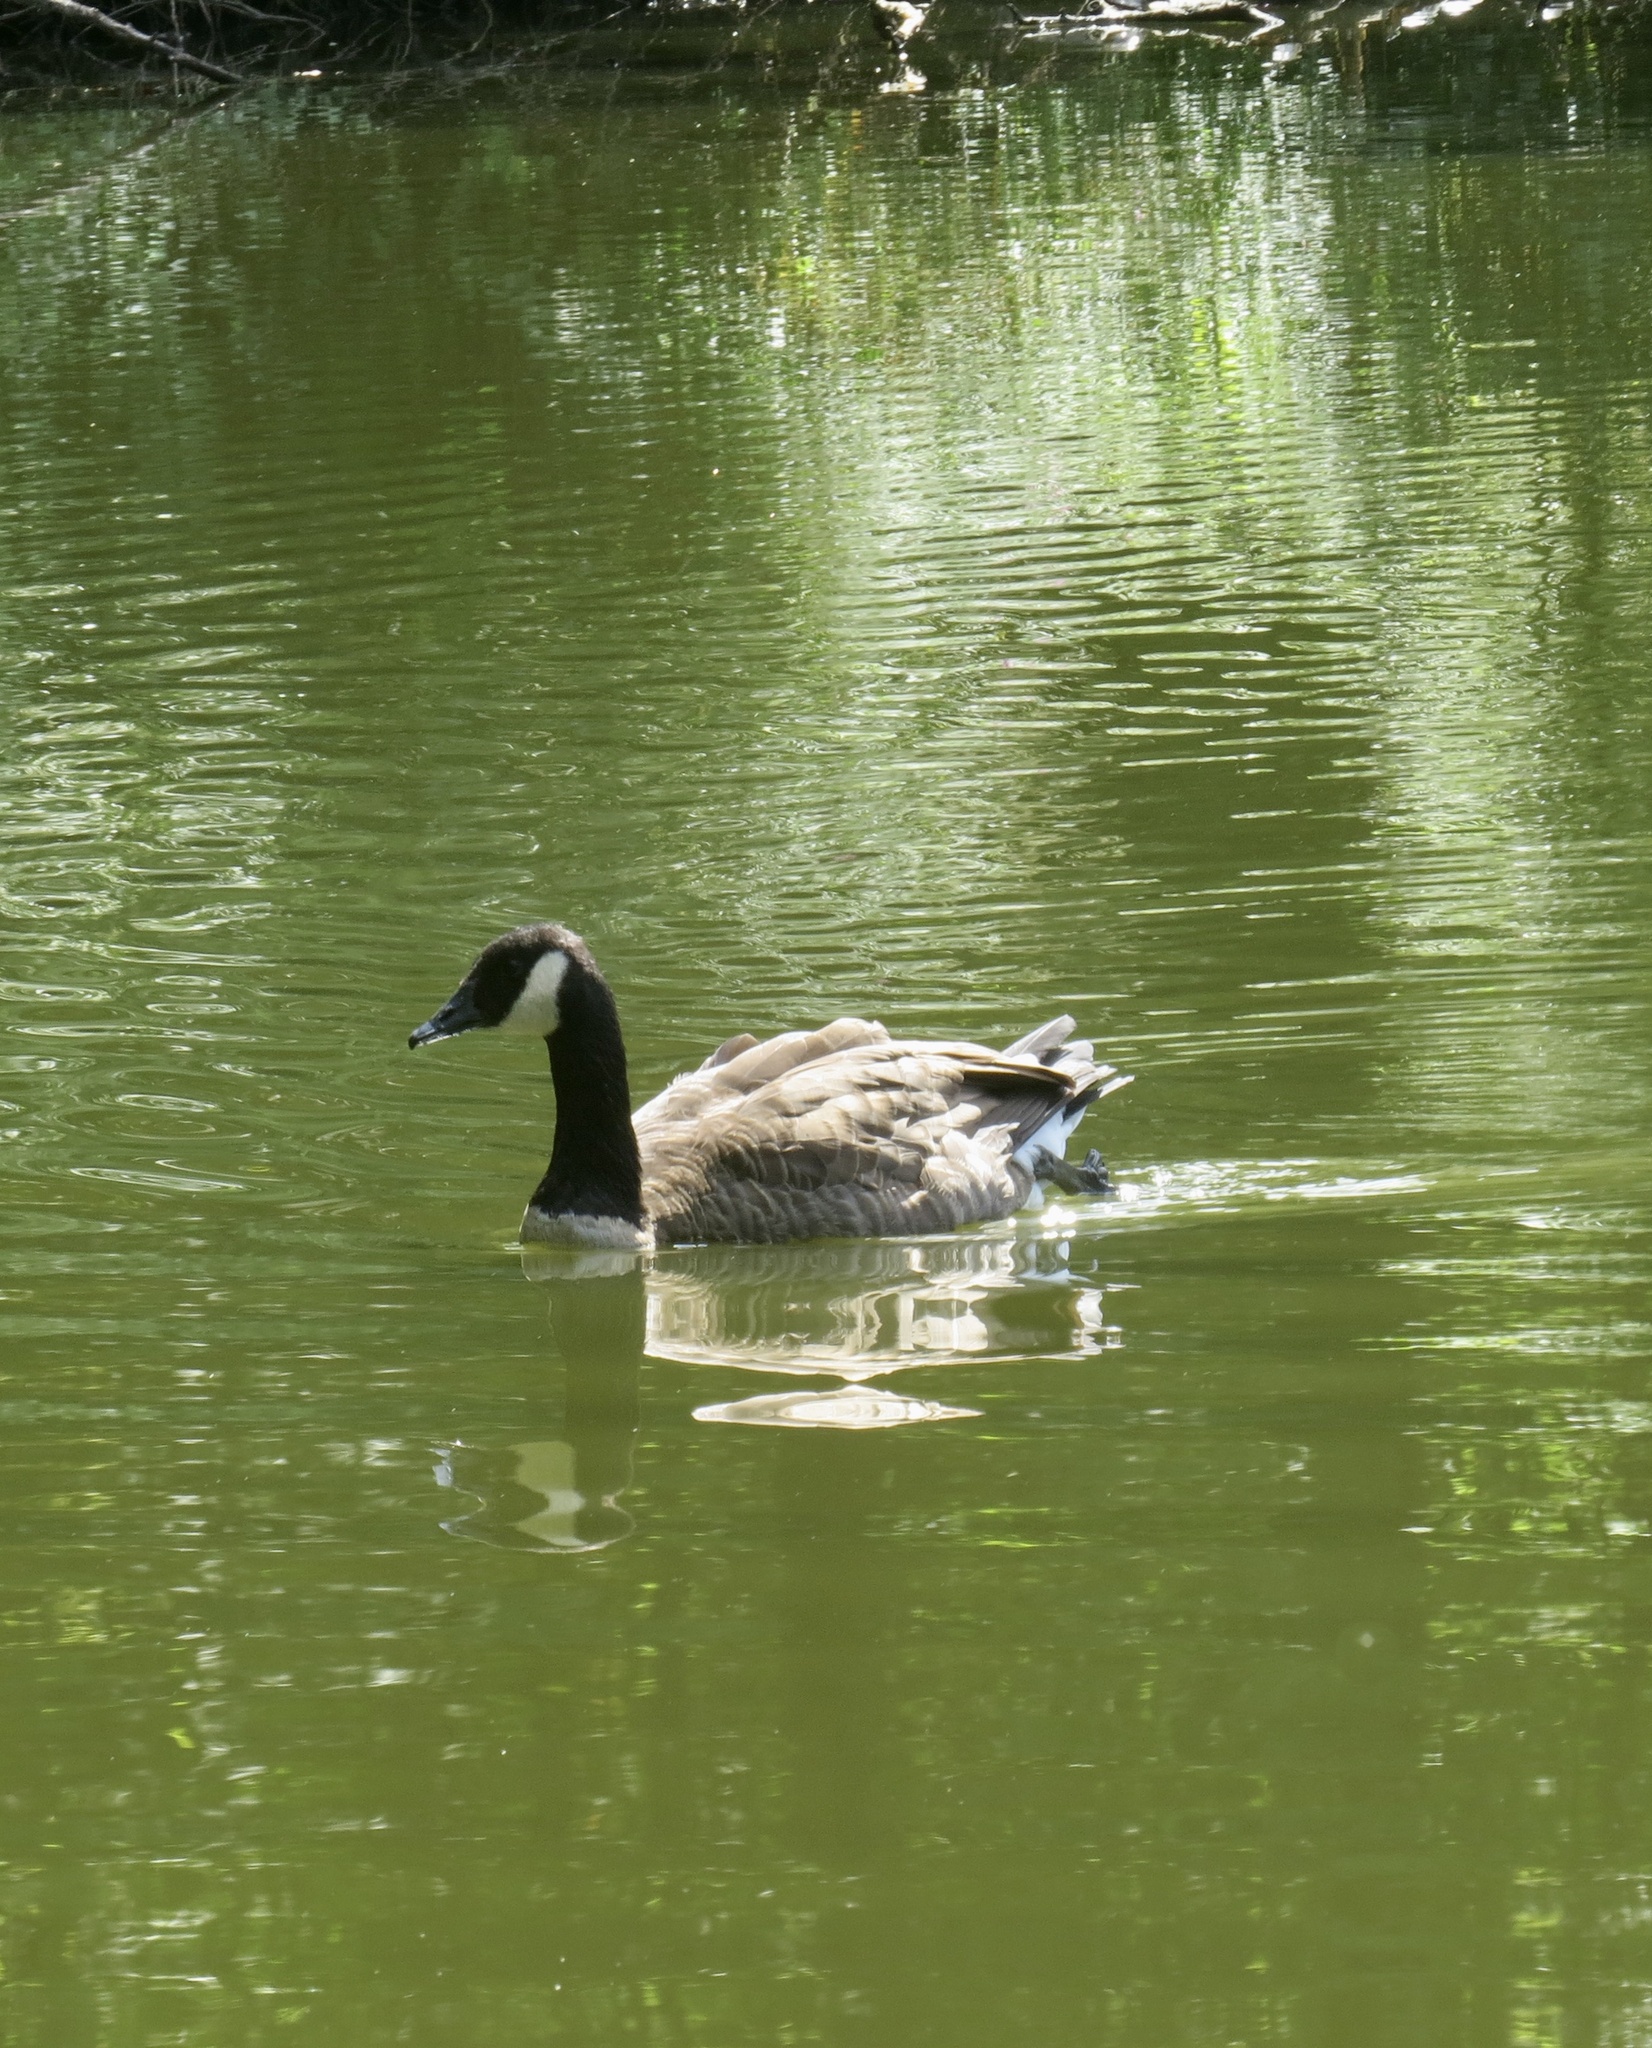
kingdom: Animalia
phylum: Chordata
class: Aves
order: Anseriformes
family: Anatidae
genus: Branta
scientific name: Branta canadensis
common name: Canada goose
